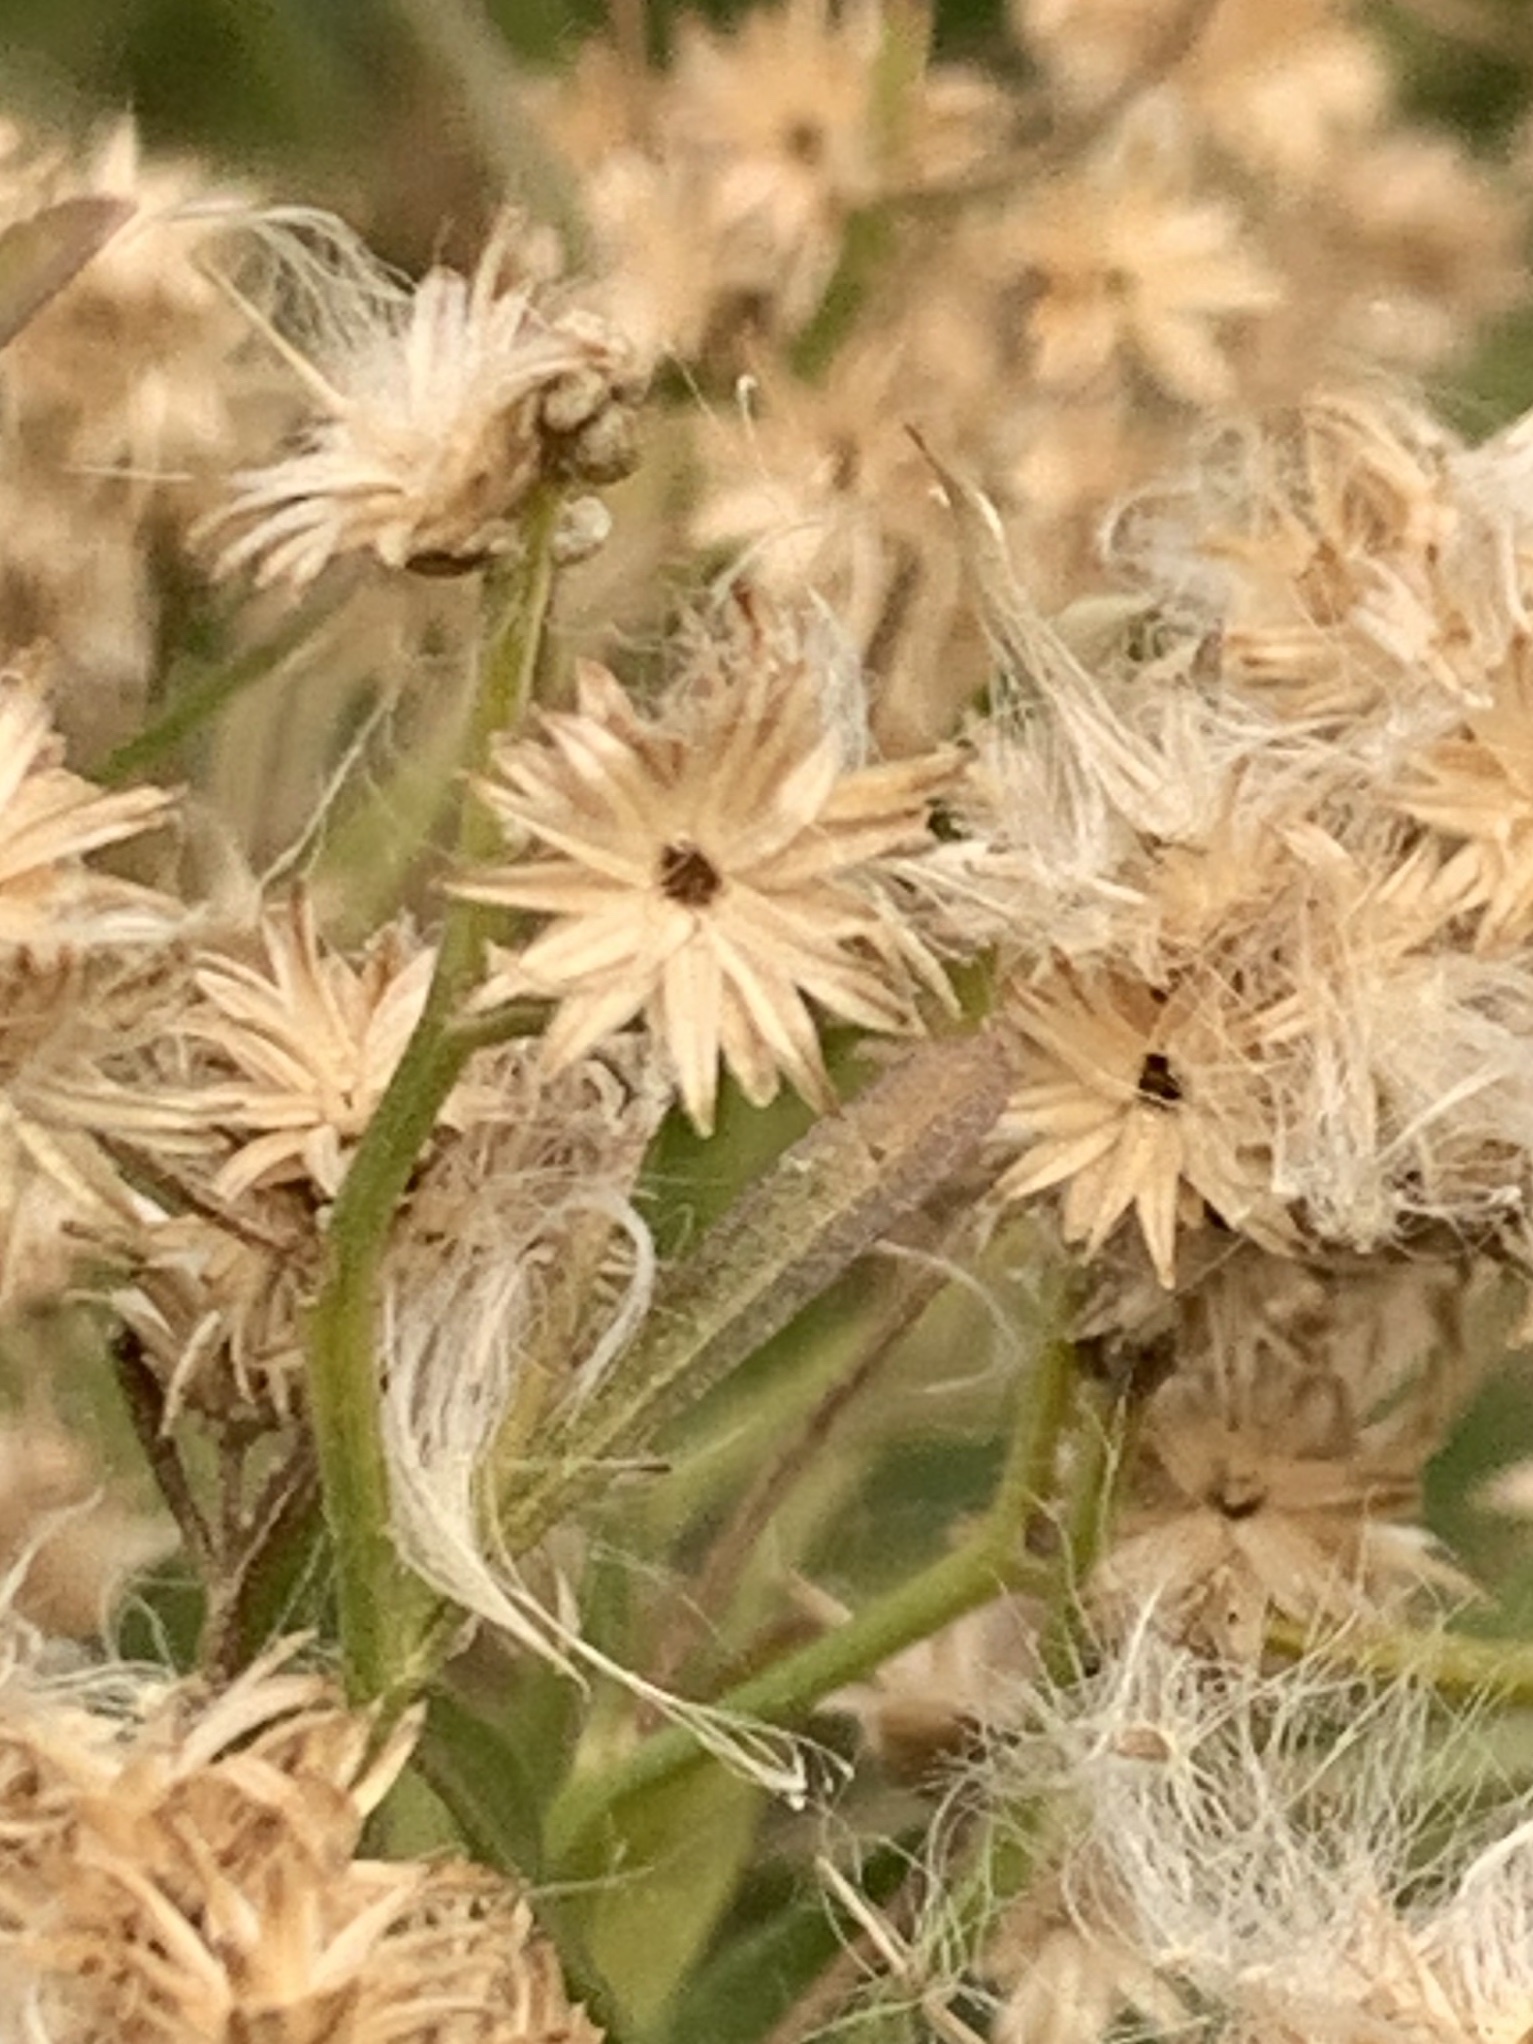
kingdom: Plantae
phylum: Tracheophyta
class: Magnoliopsida
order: Asterales
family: Asteraceae
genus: Baccharis
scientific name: Baccharis halimifolia
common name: Eastern baccharis
